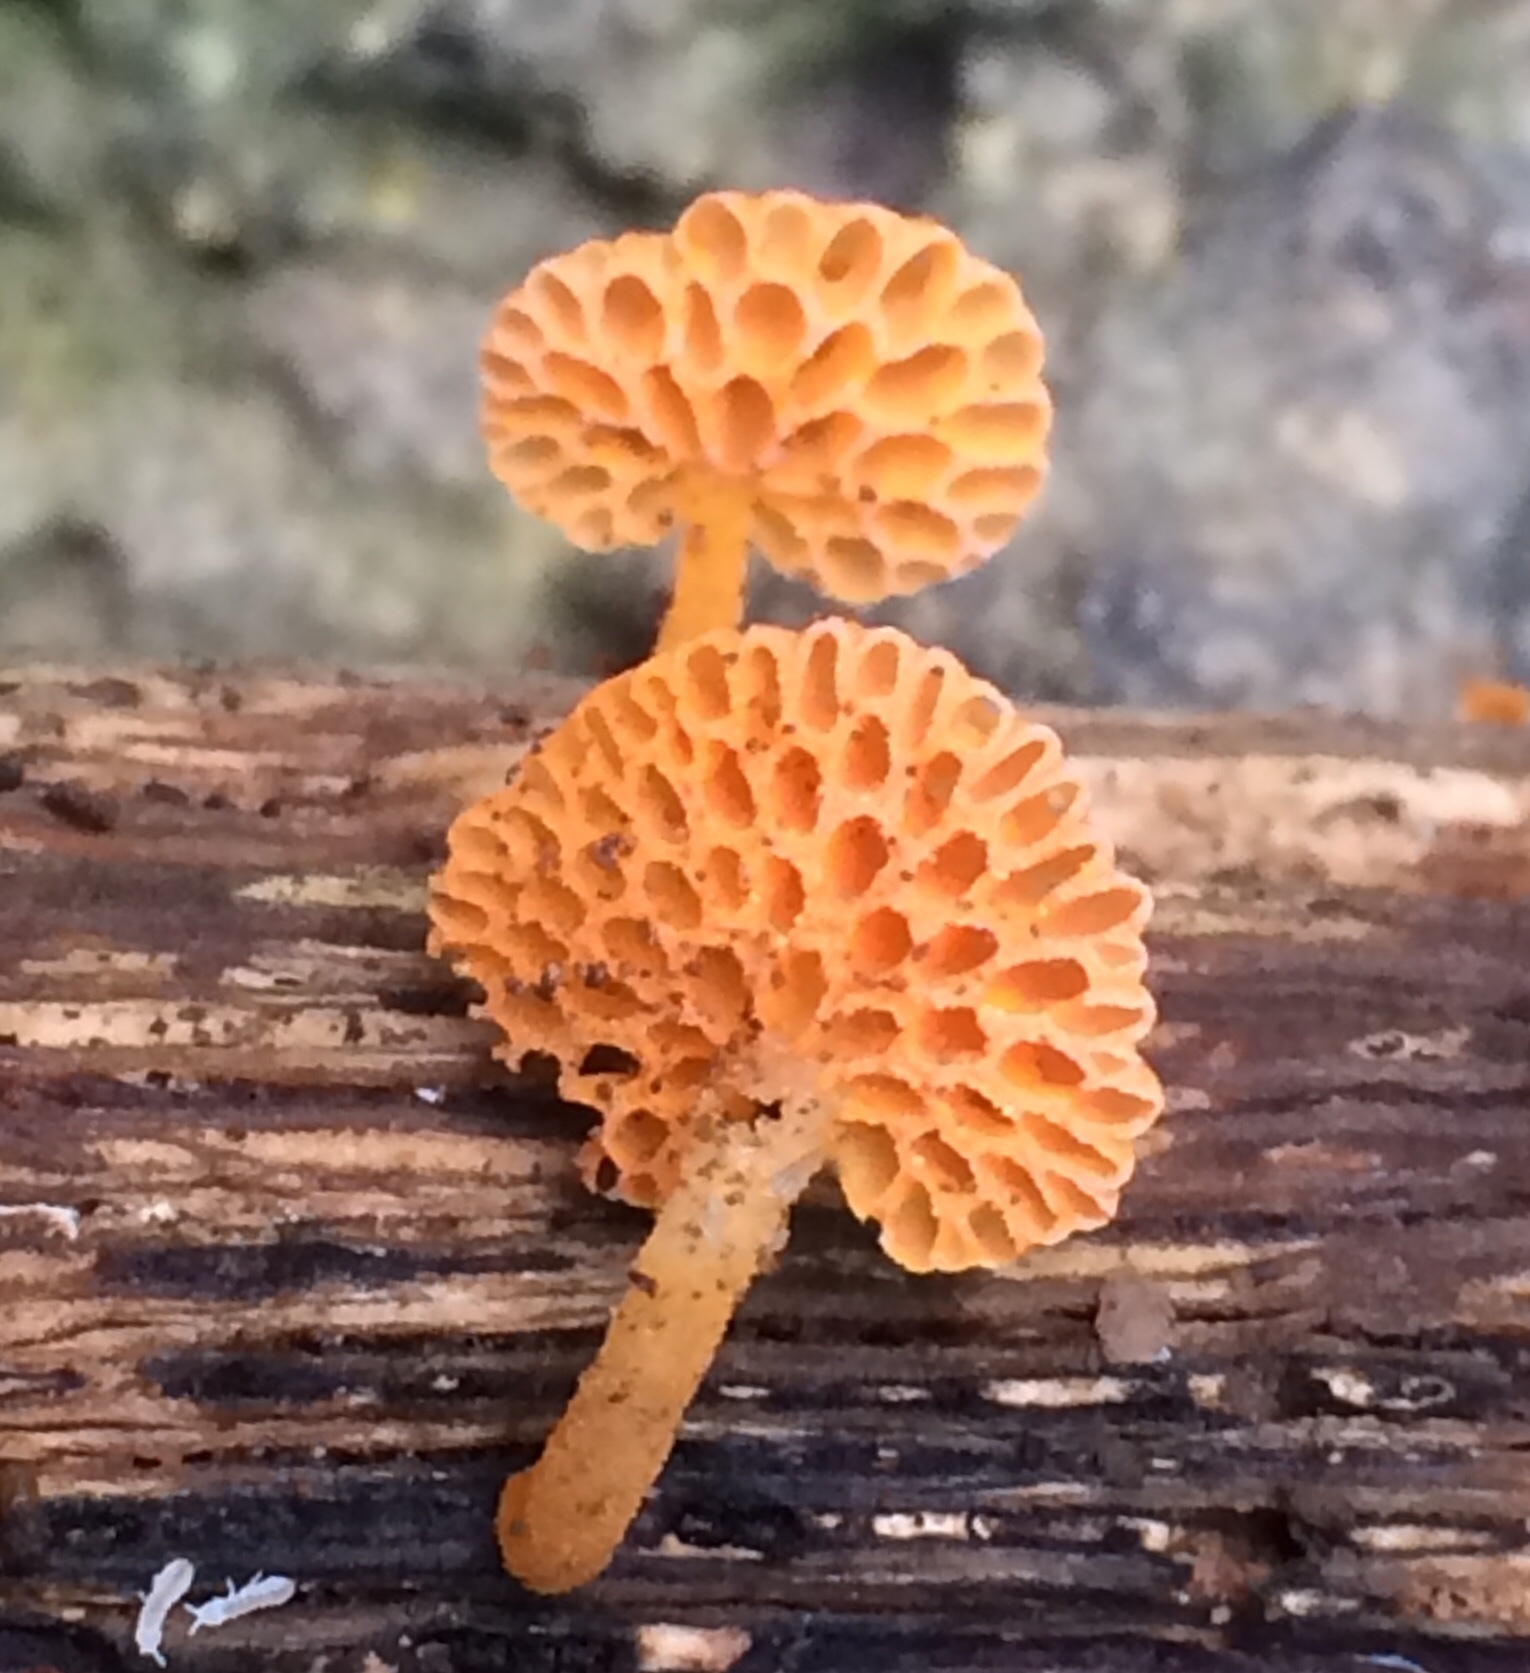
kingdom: Fungi
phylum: Basidiomycota
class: Agaricomycetes
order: Agaricales
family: Mycenaceae
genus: Favolaschia
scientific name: Favolaschia claudopus
